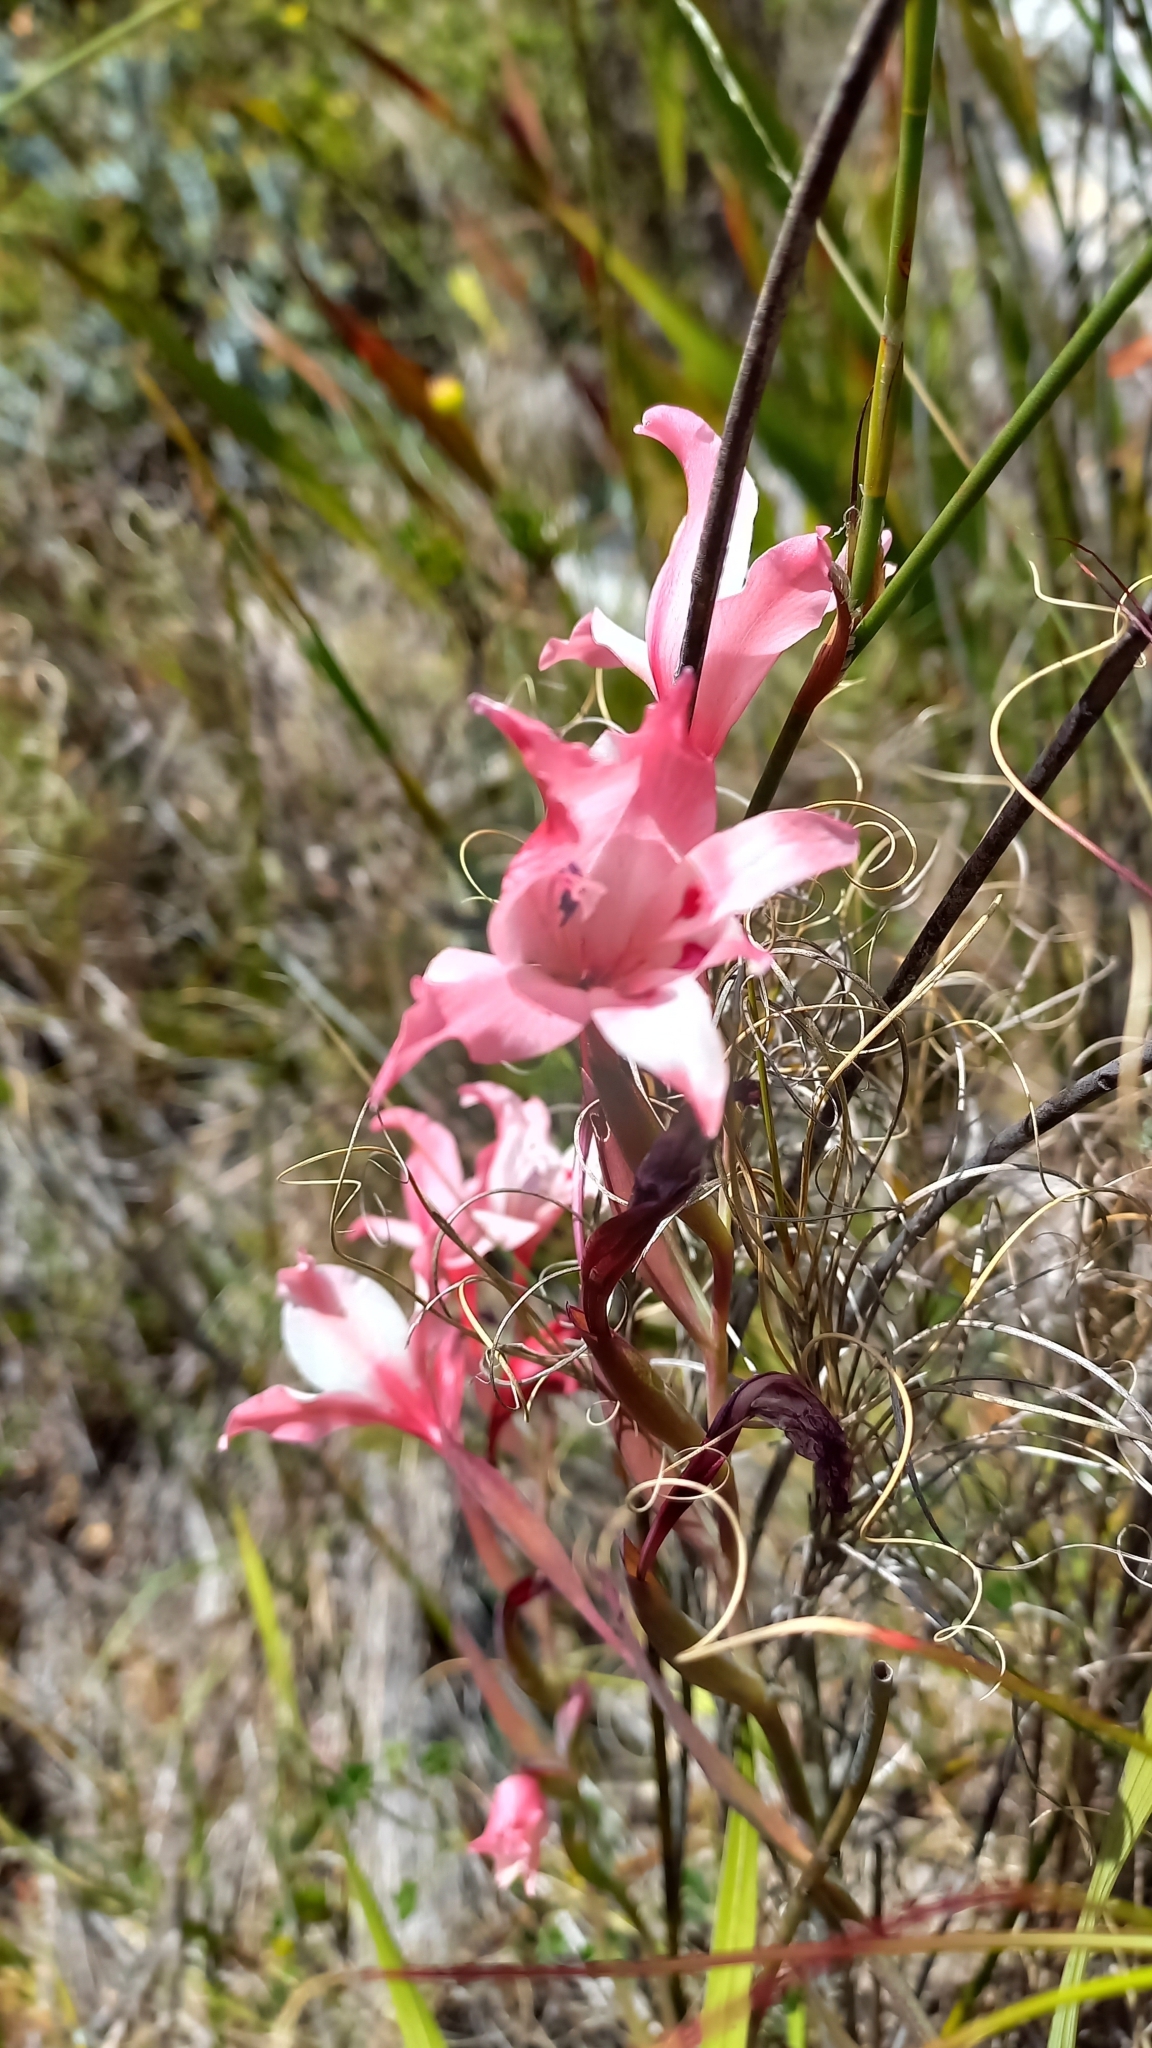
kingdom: Plantae
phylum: Tracheophyta
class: Liliopsida
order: Asparagales
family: Iridaceae
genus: Gladiolus
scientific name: Gladiolus carneus
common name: Painted-lady
